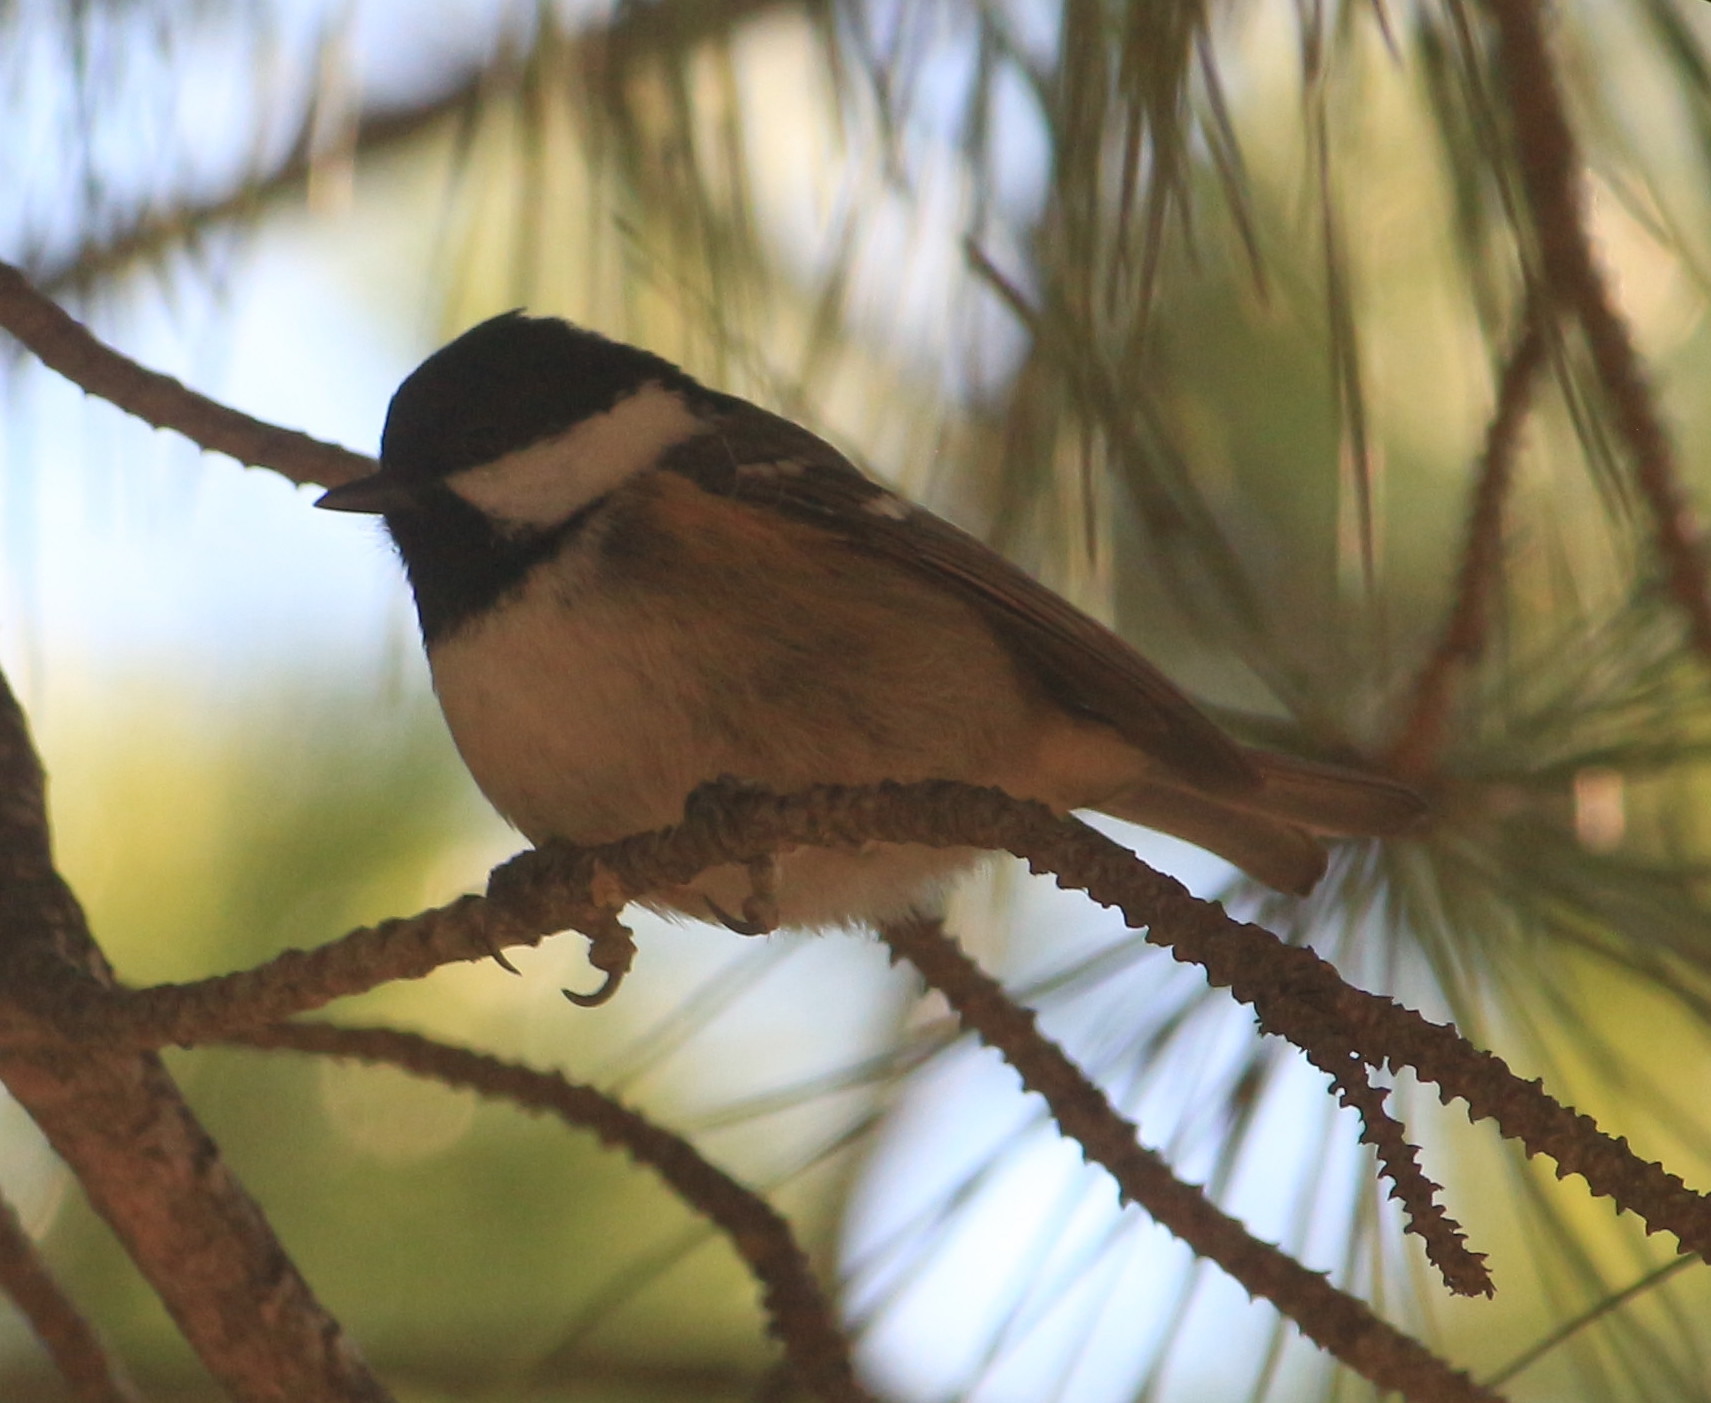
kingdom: Animalia
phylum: Chordata
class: Aves
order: Passeriformes
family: Paridae
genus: Periparus
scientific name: Periparus ater
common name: Coal tit
